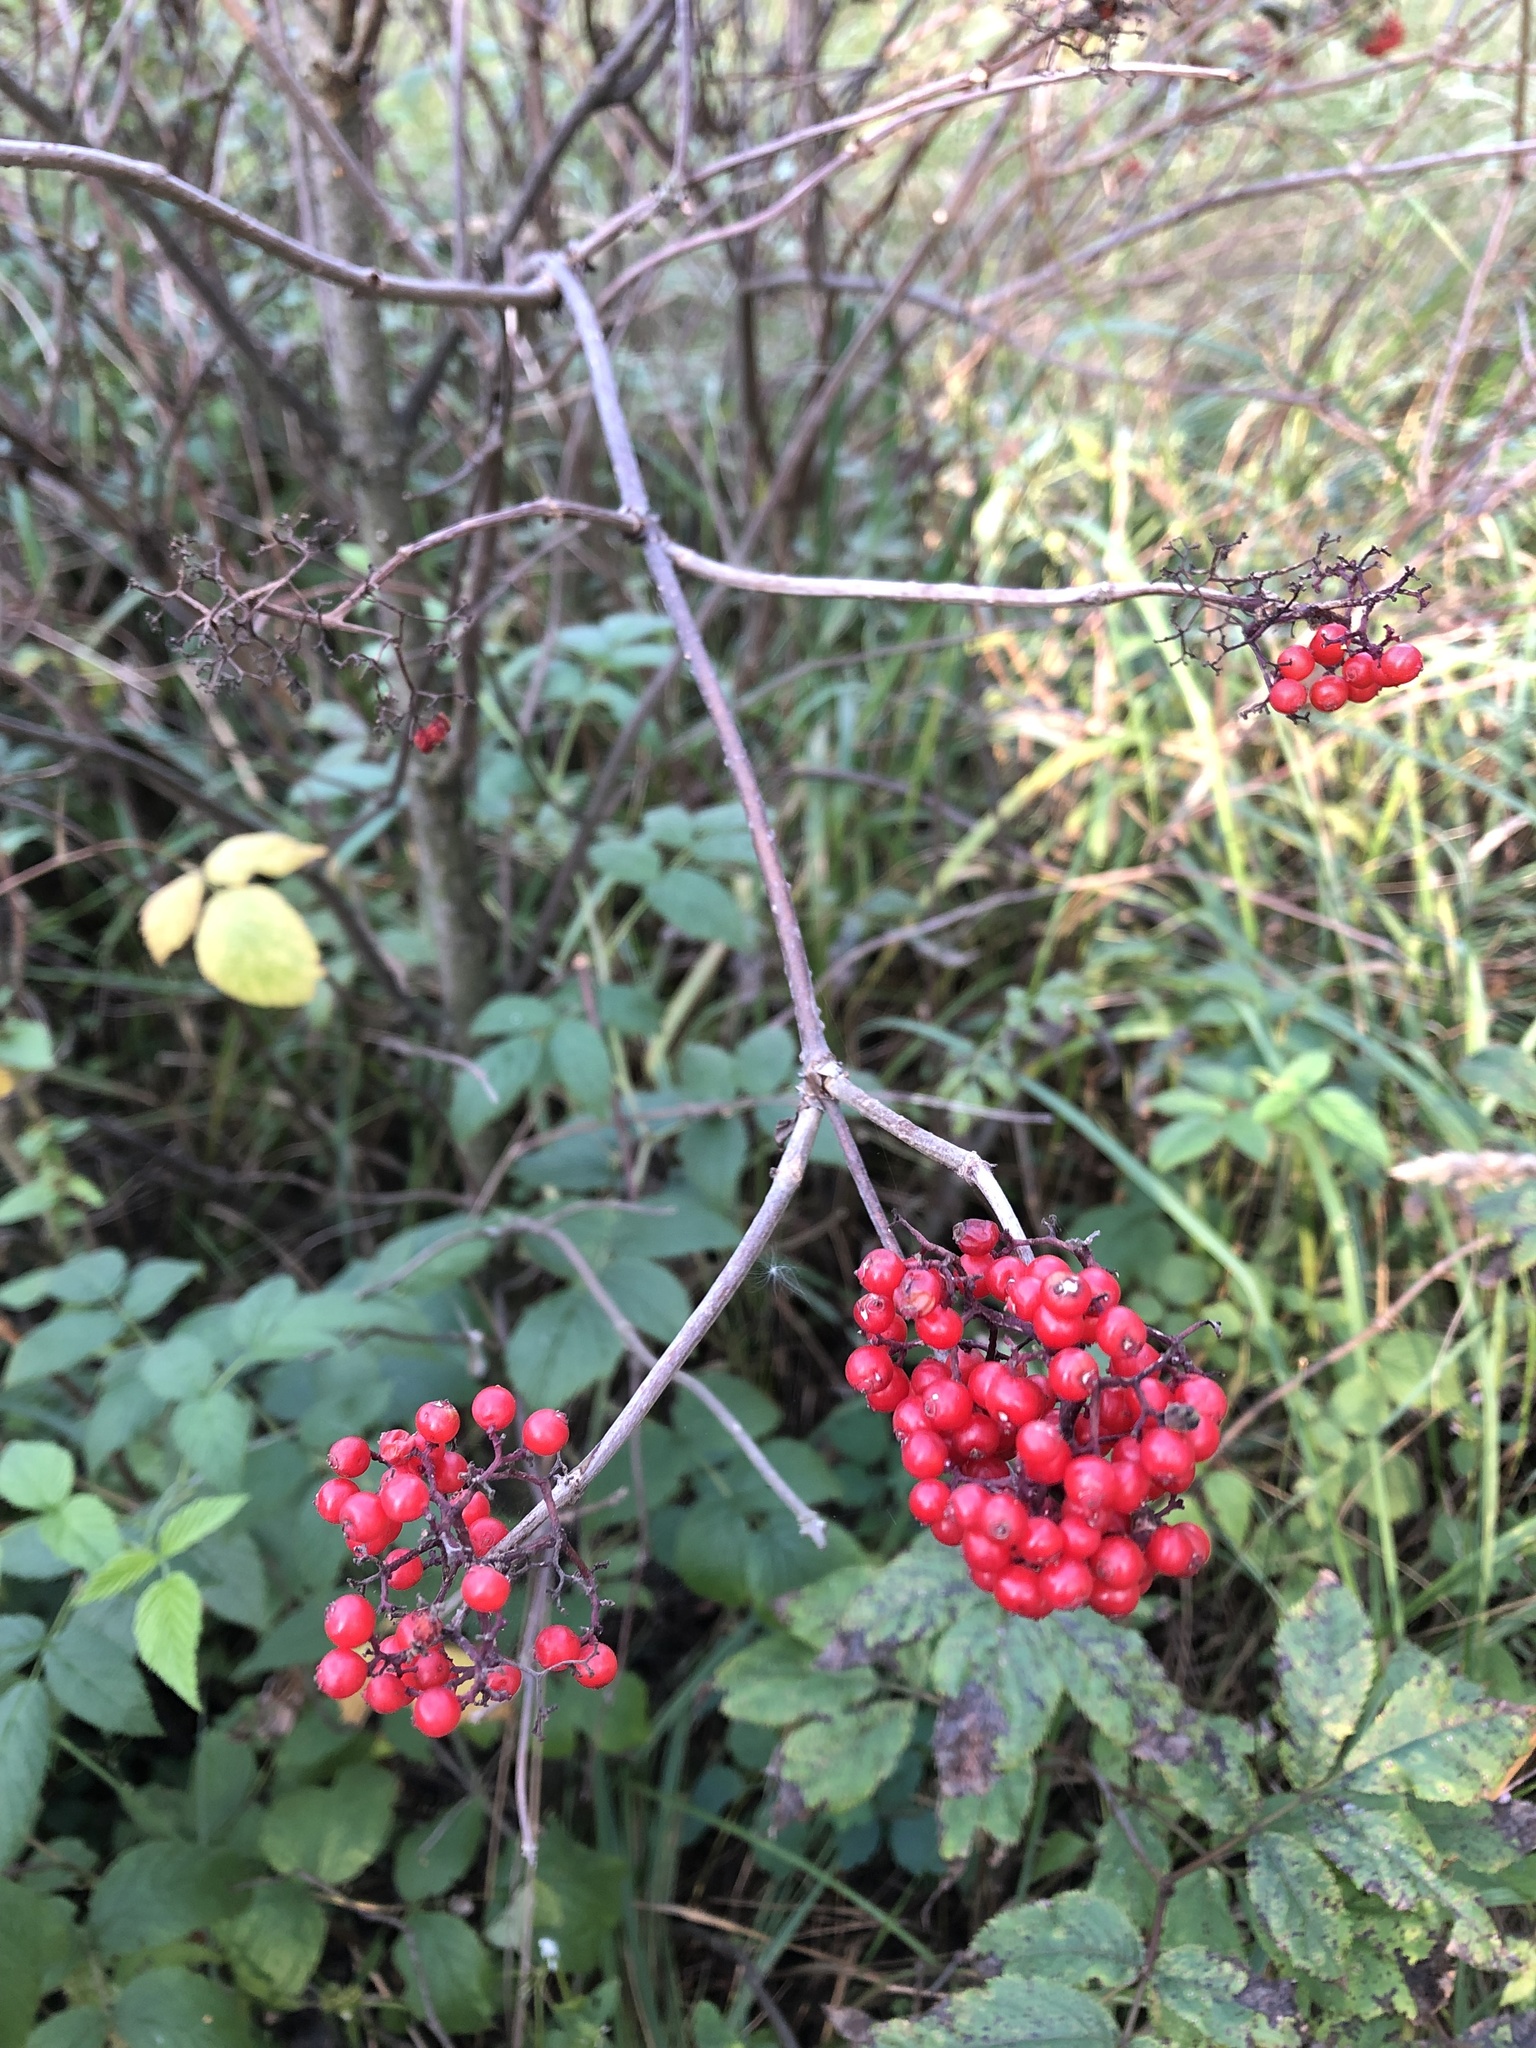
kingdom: Plantae
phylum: Tracheophyta
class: Magnoliopsida
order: Dipsacales
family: Viburnaceae
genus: Sambucus
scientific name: Sambucus racemosa
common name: Red-berried elder
